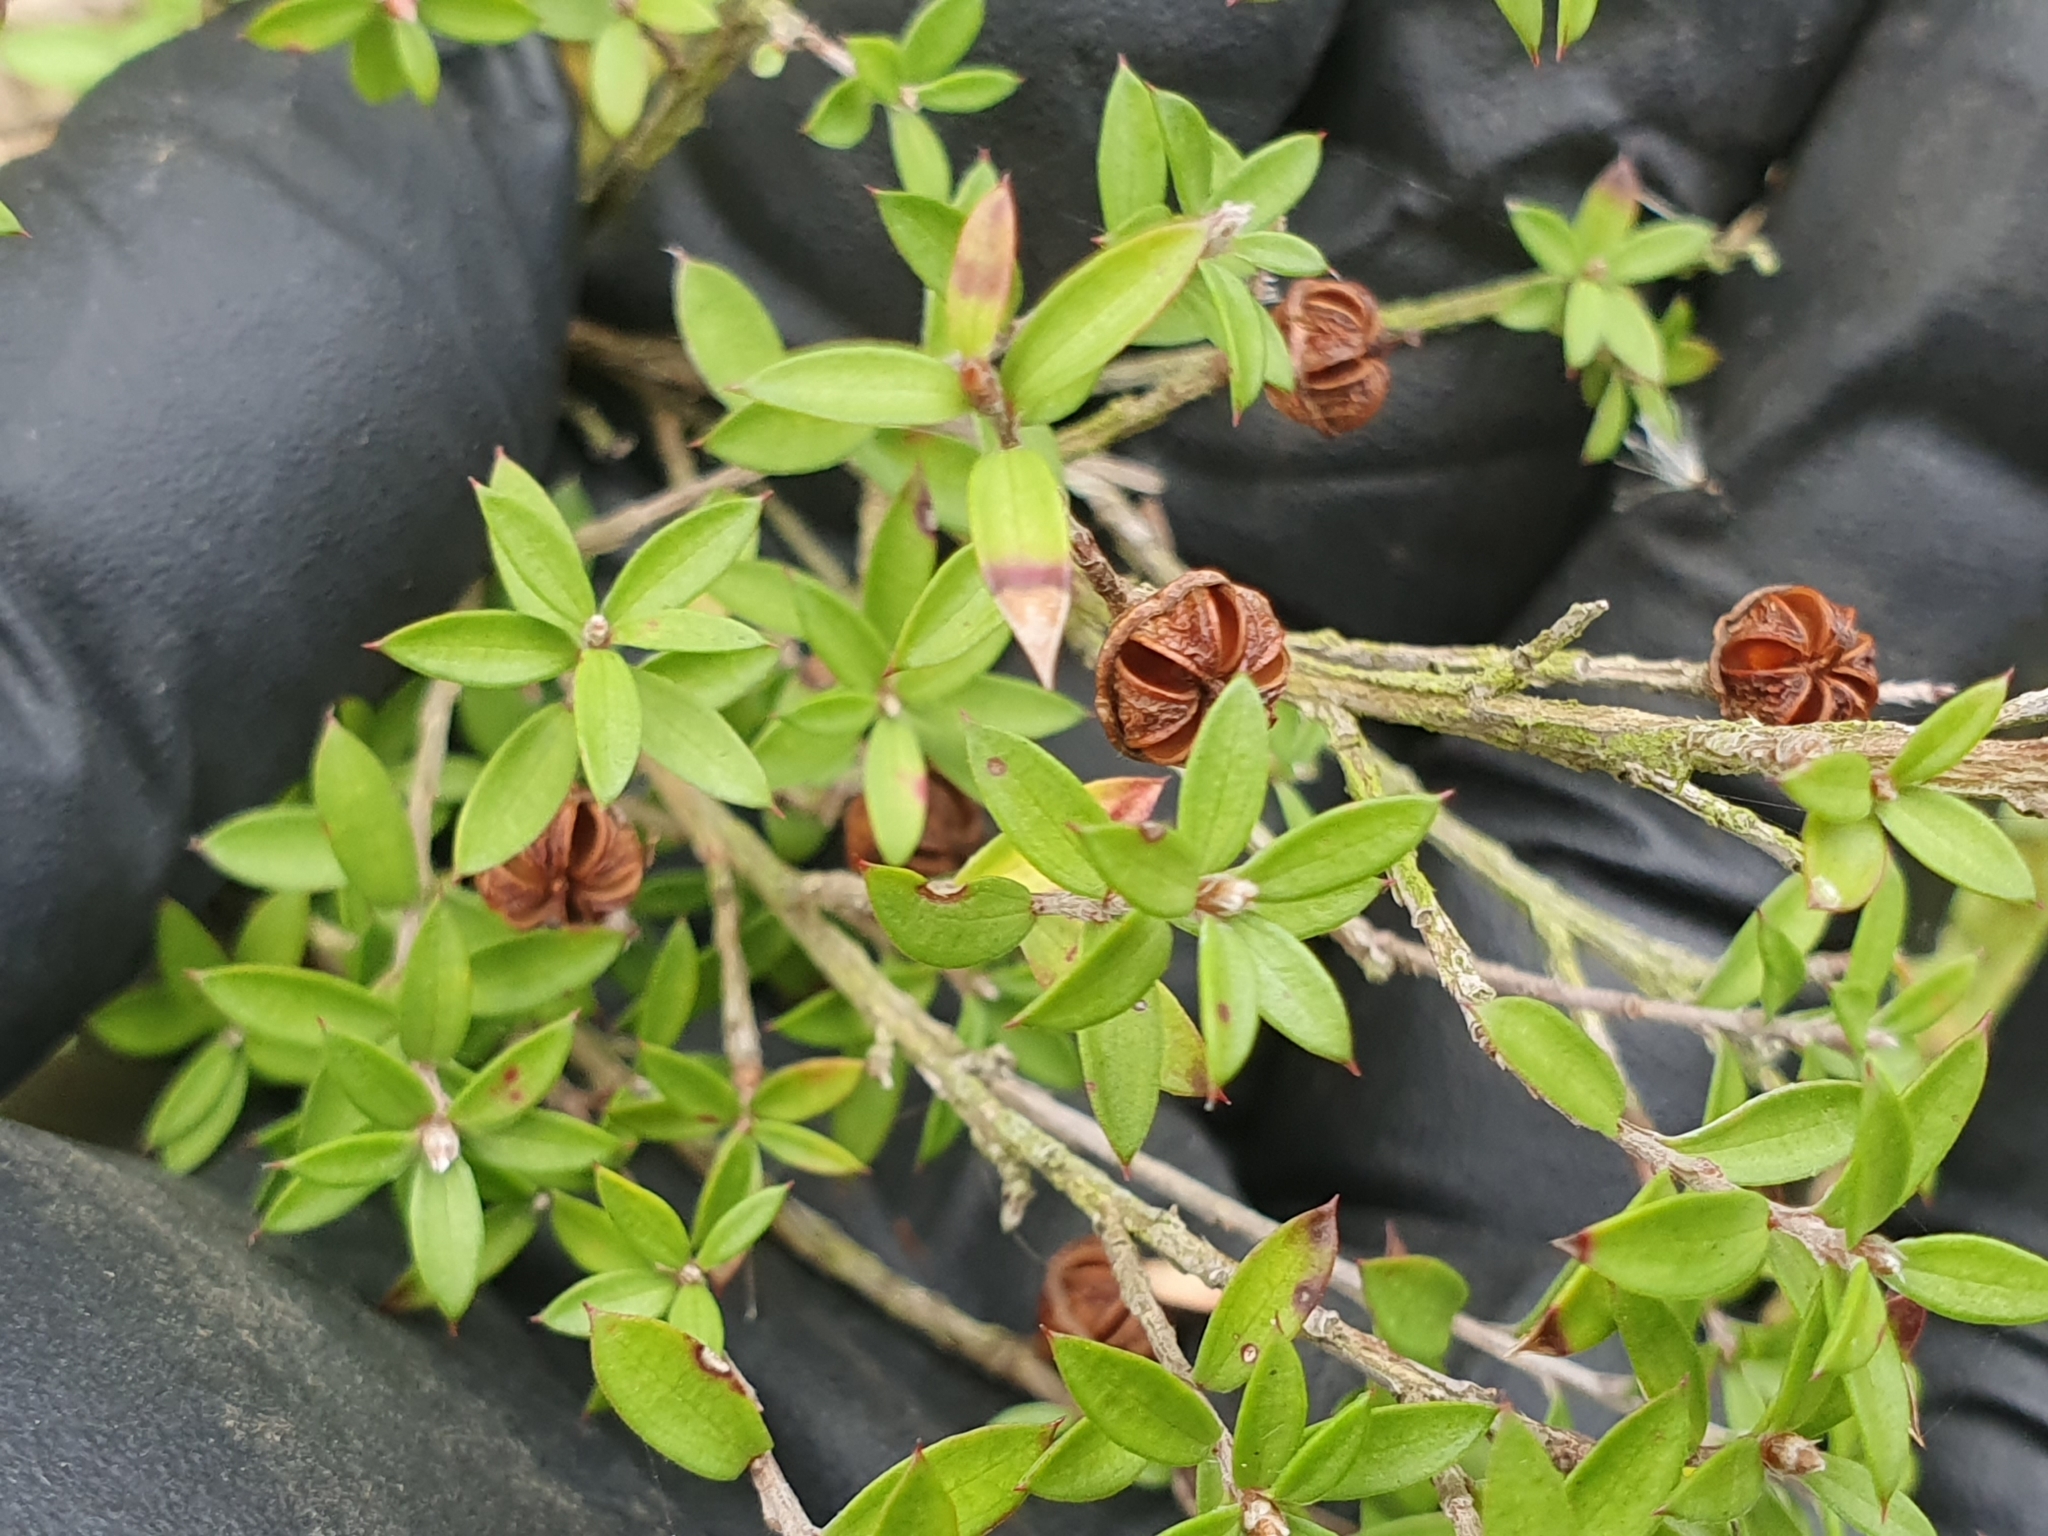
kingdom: Plantae
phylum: Tracheophyta
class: Magnoliopsida
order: Myrtales
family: Myrtaceae
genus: Leptospermum
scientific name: Leptospermum scoparium
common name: Broom tea-tree
